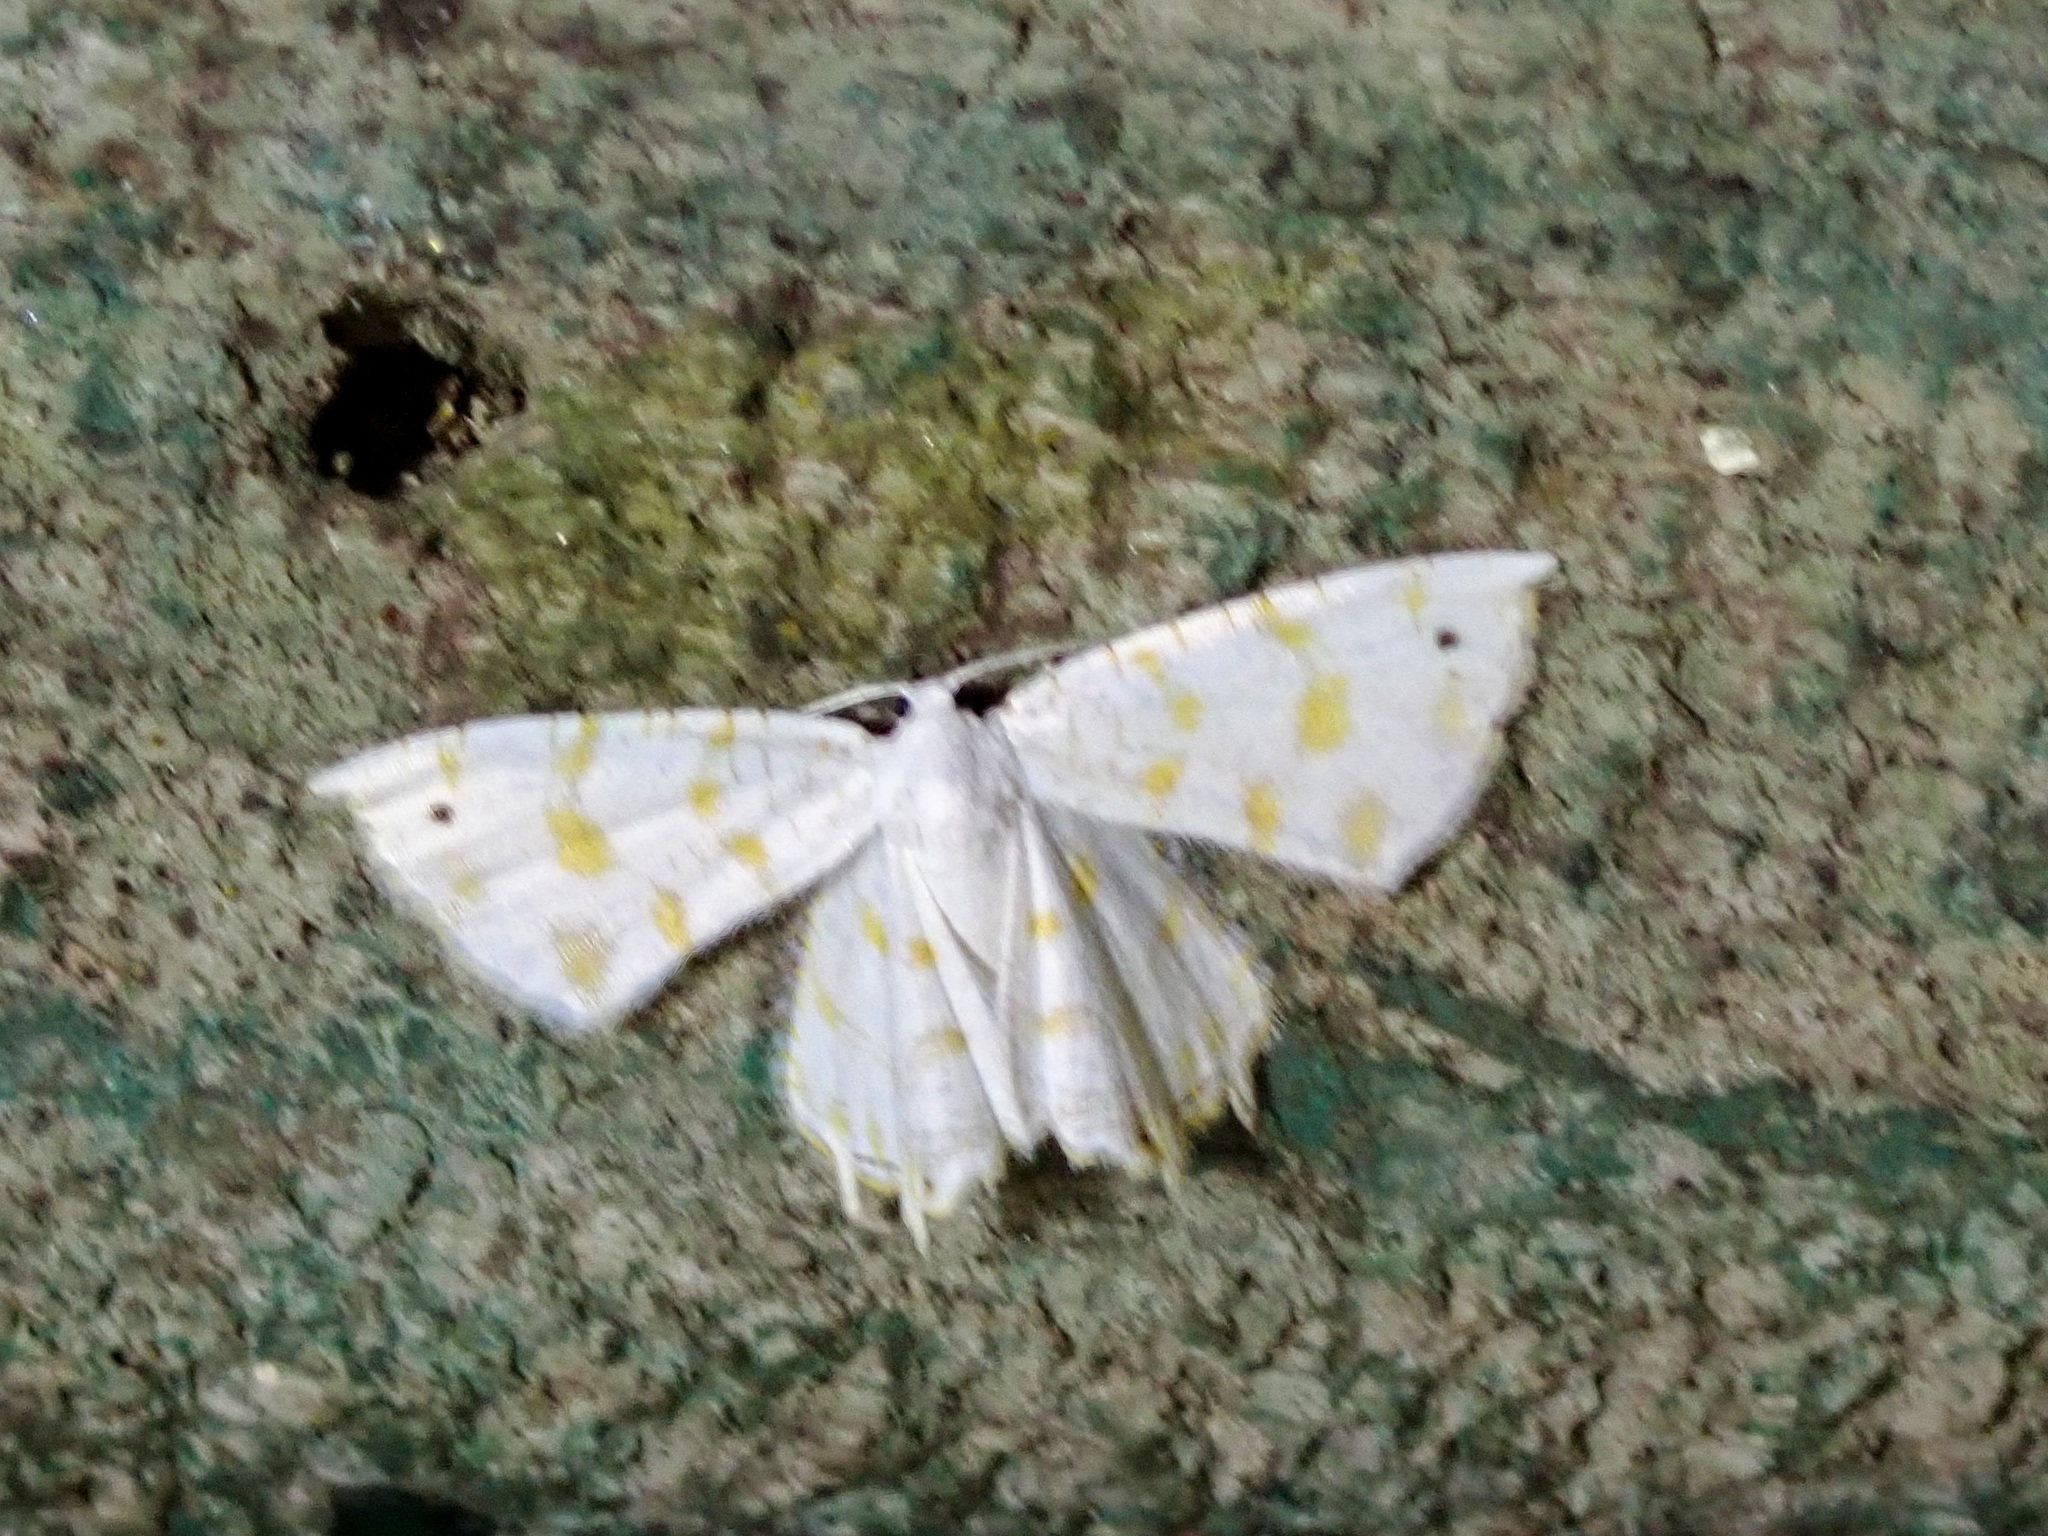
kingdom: Animalia
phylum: Arthropoda
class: Insecta
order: Lepidoptera
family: Uraniidae
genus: Epiplema
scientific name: Epiplema fulvilinea
